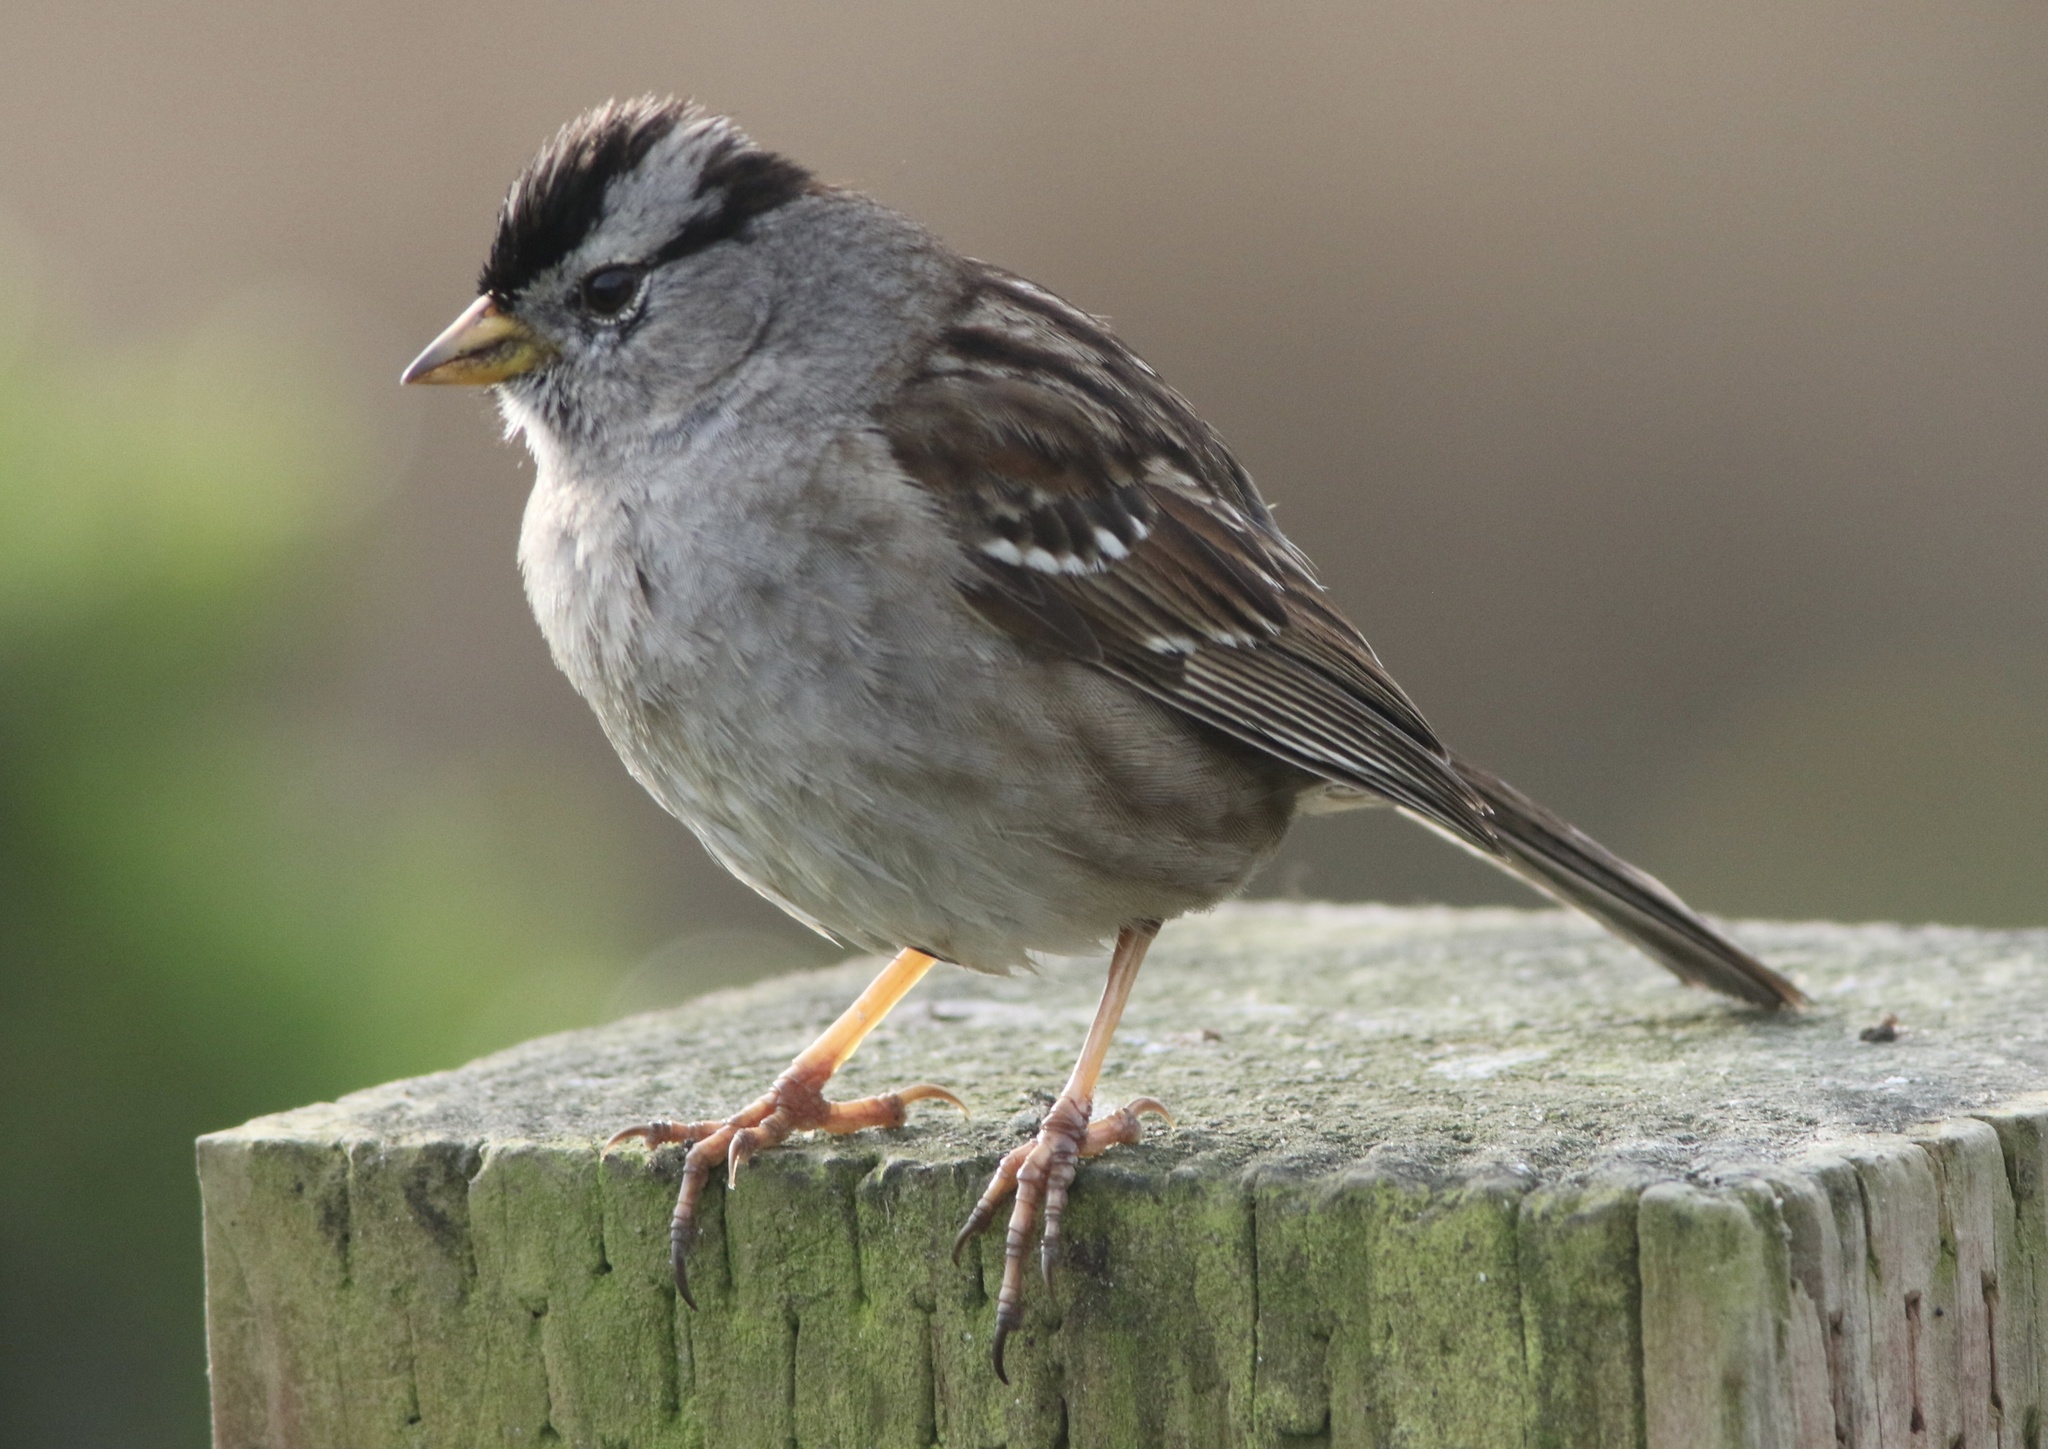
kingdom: Animalia
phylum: Chordata
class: Aves
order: Passeriformes
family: Passerellidae
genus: Zonotrichia
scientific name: Zonotrichia leucophrys
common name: White-crowned sparrow
